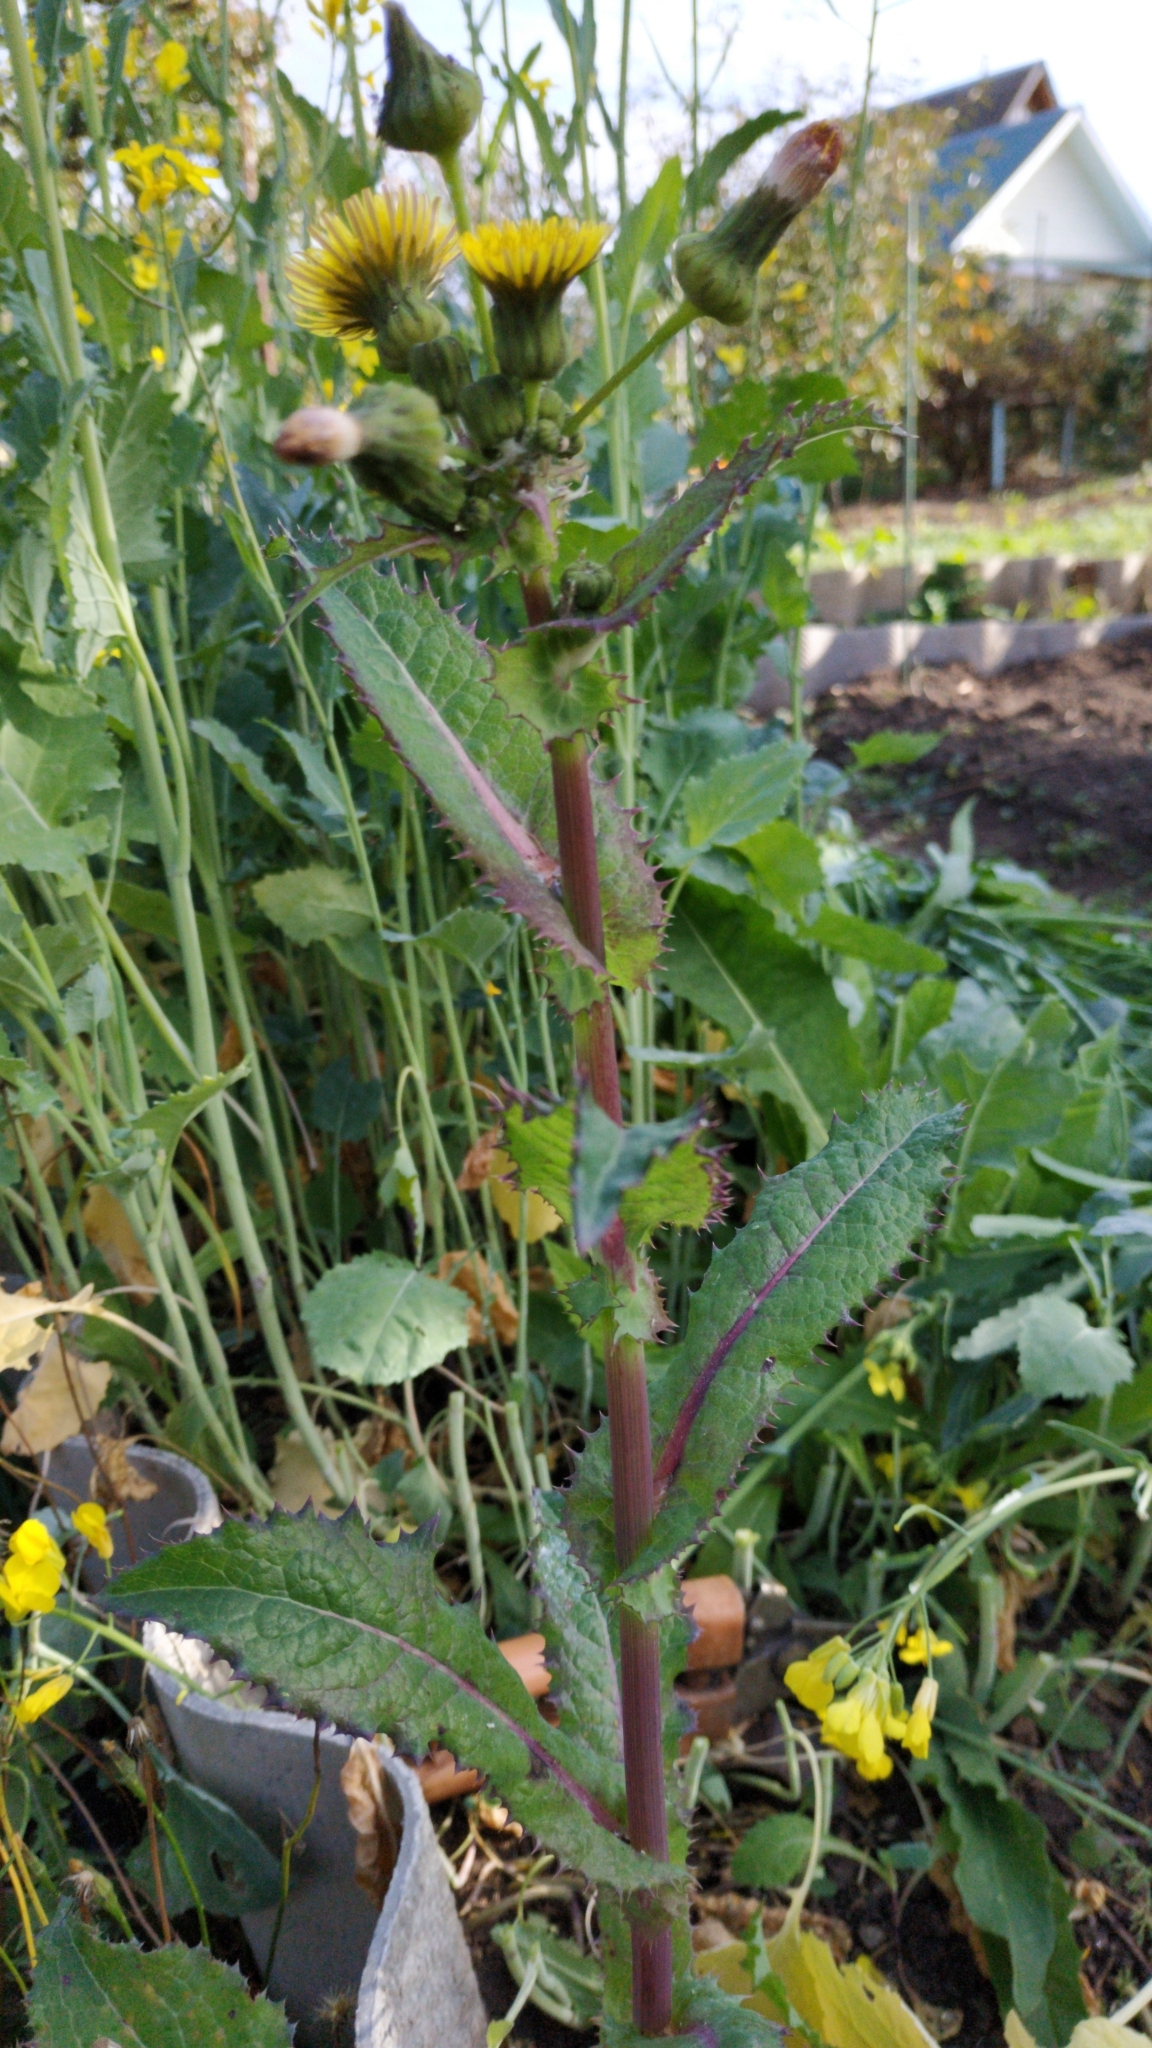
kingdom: Plantae
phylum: Tracheophyta
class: Magnoliopsida
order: Asterales
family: Asteraceae
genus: Sonchus
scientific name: Sonchus asper
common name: Prickly sow-thistle
